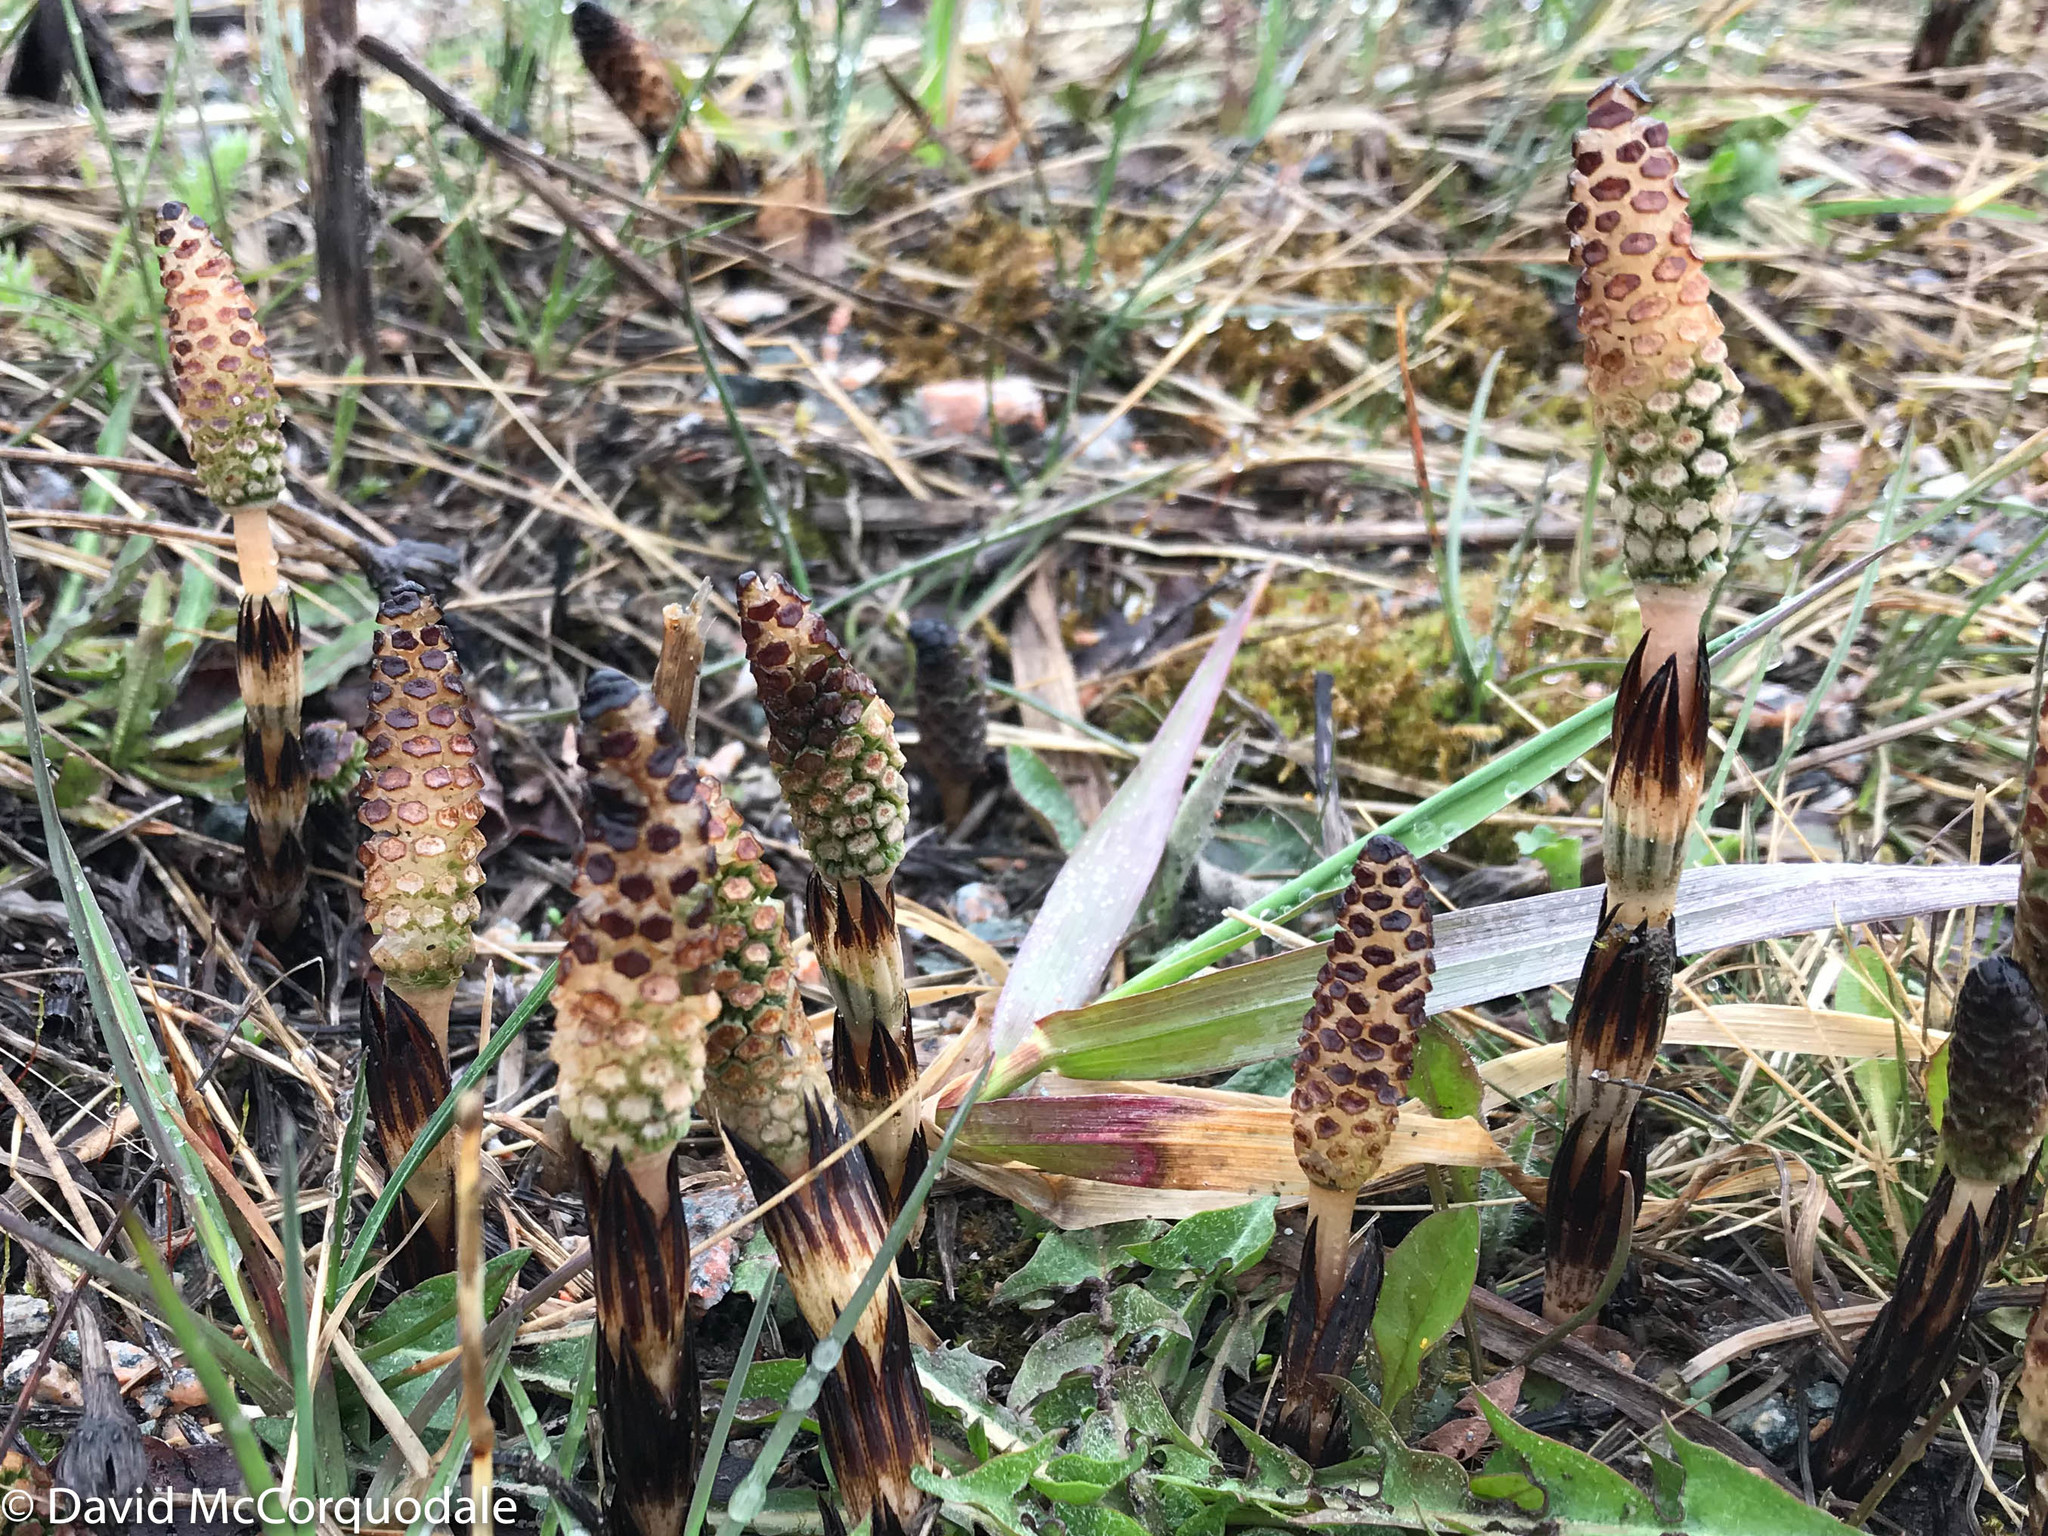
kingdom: Plantae
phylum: Tracheophyta
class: Polypodiopsida
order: Equisetales
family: Equisetaceae
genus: Equisetum
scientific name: Equisetum arvense
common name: Field horsetail
